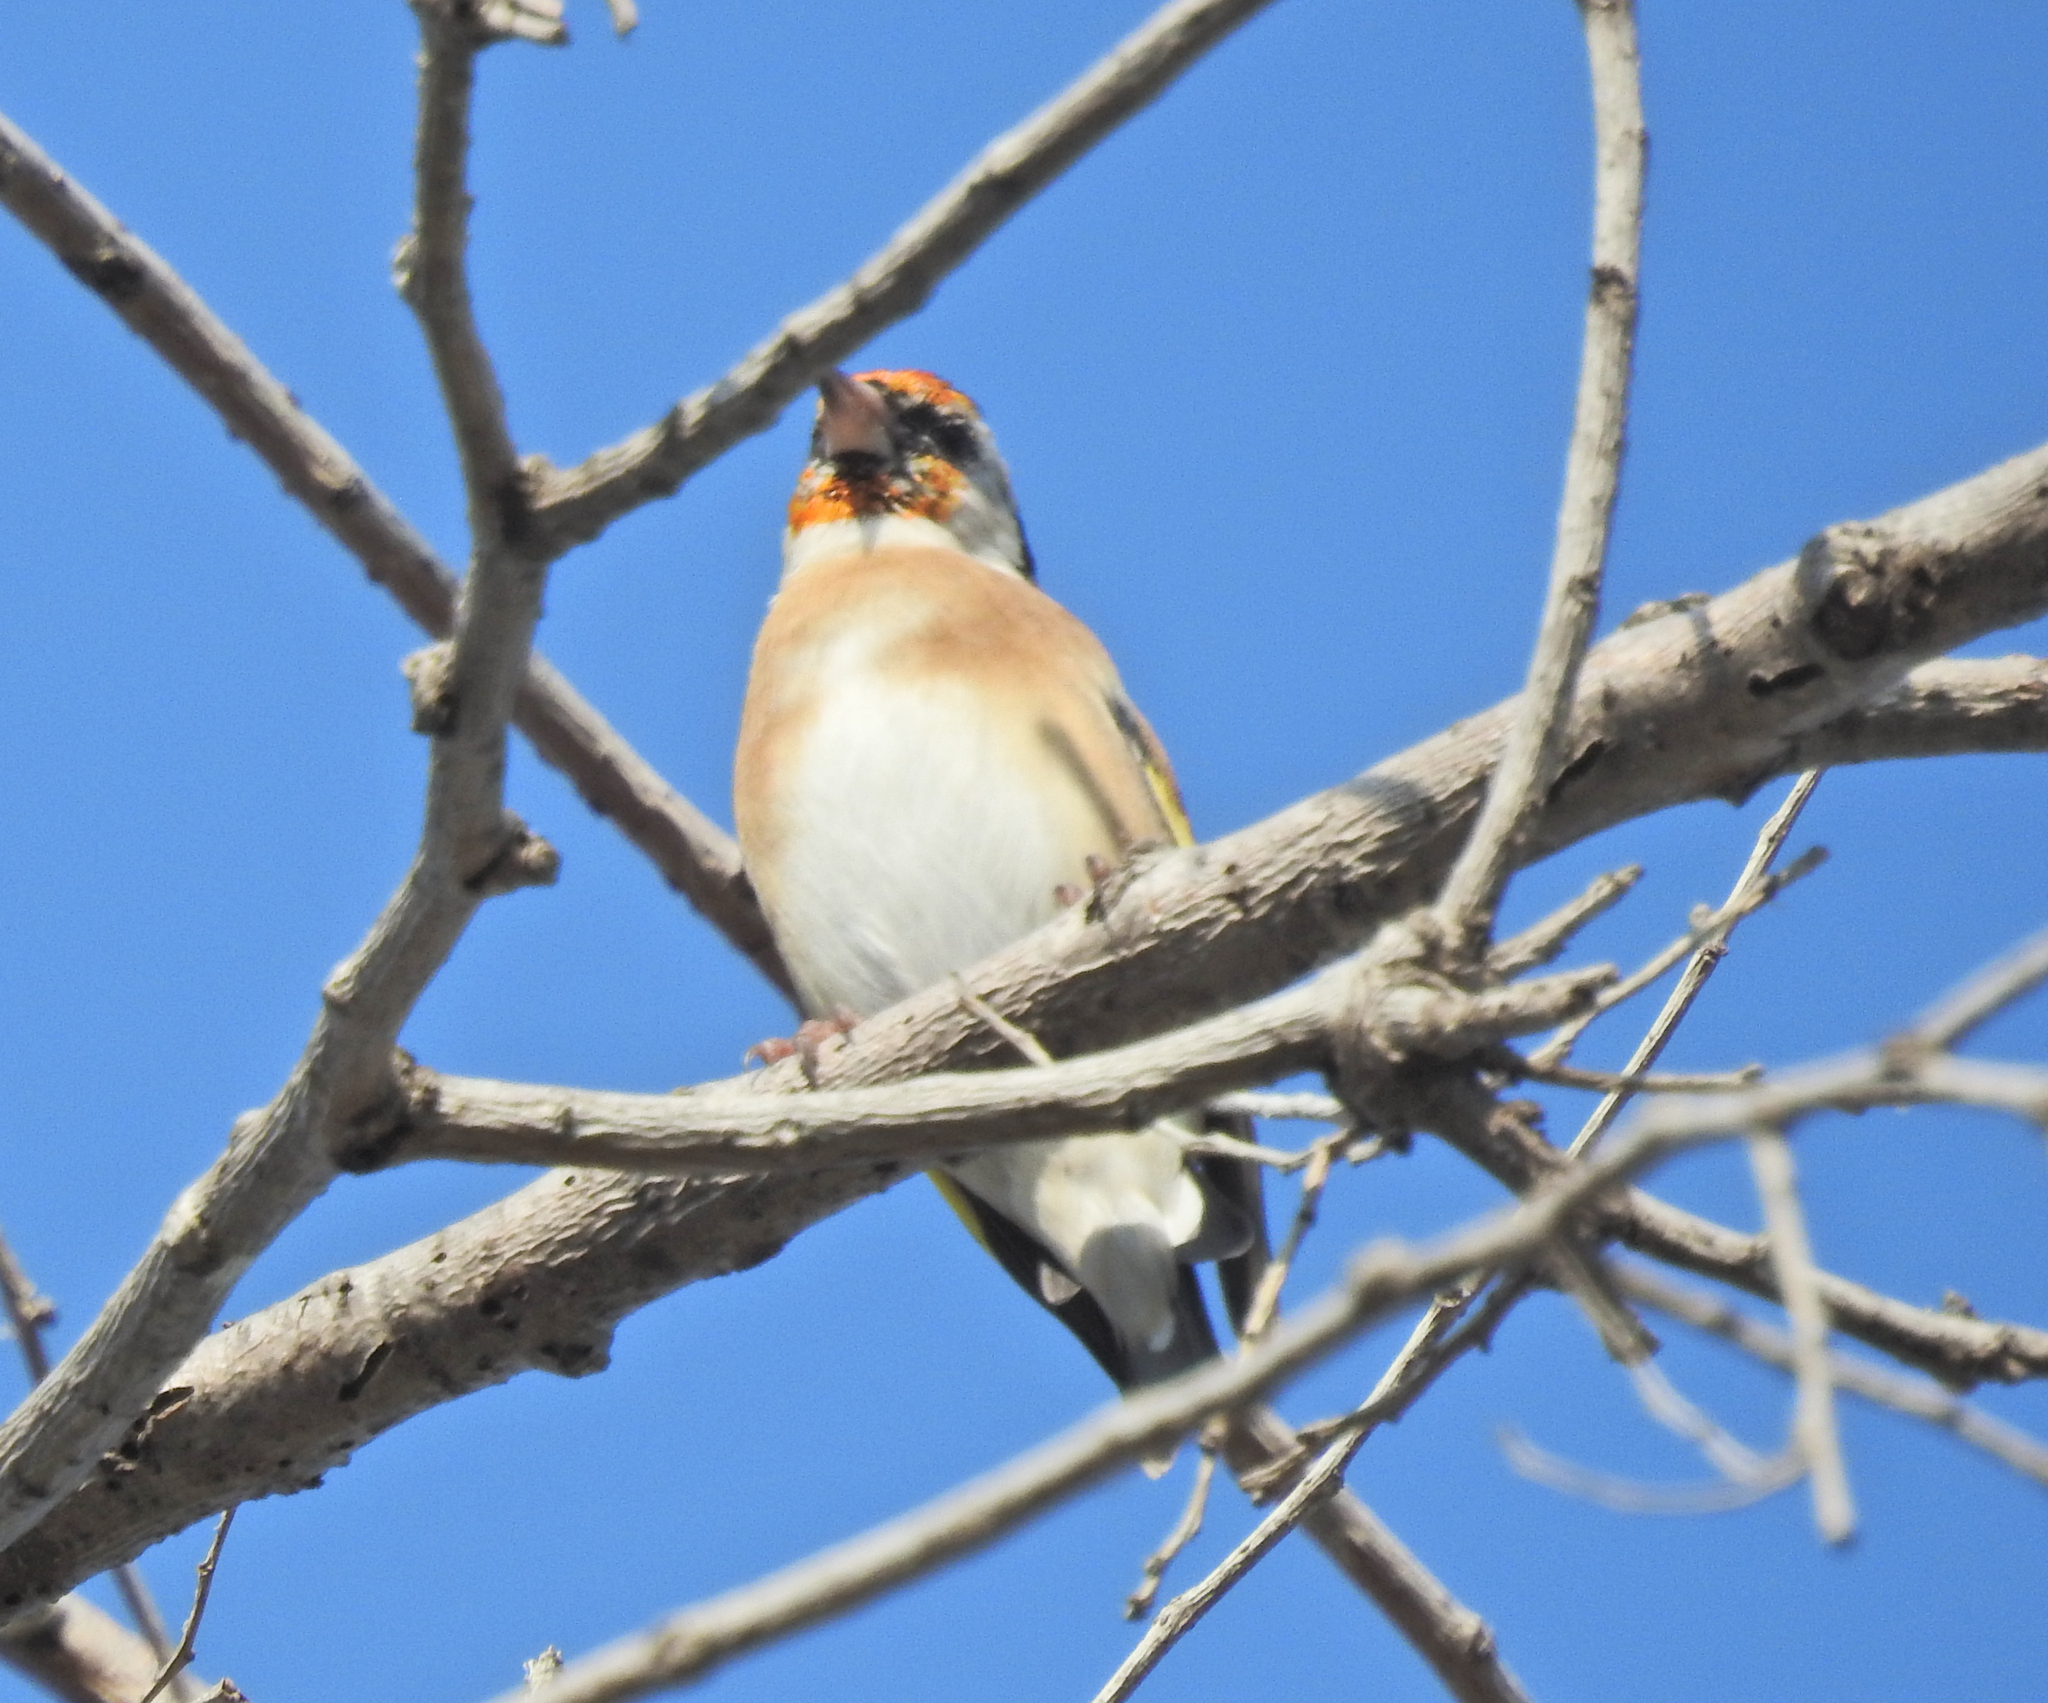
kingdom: Animalia
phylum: Chordata
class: Aves
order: Passeriformes
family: Fringillidae
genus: Carduelis
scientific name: Carduelis carduelis
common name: European goldfinch
